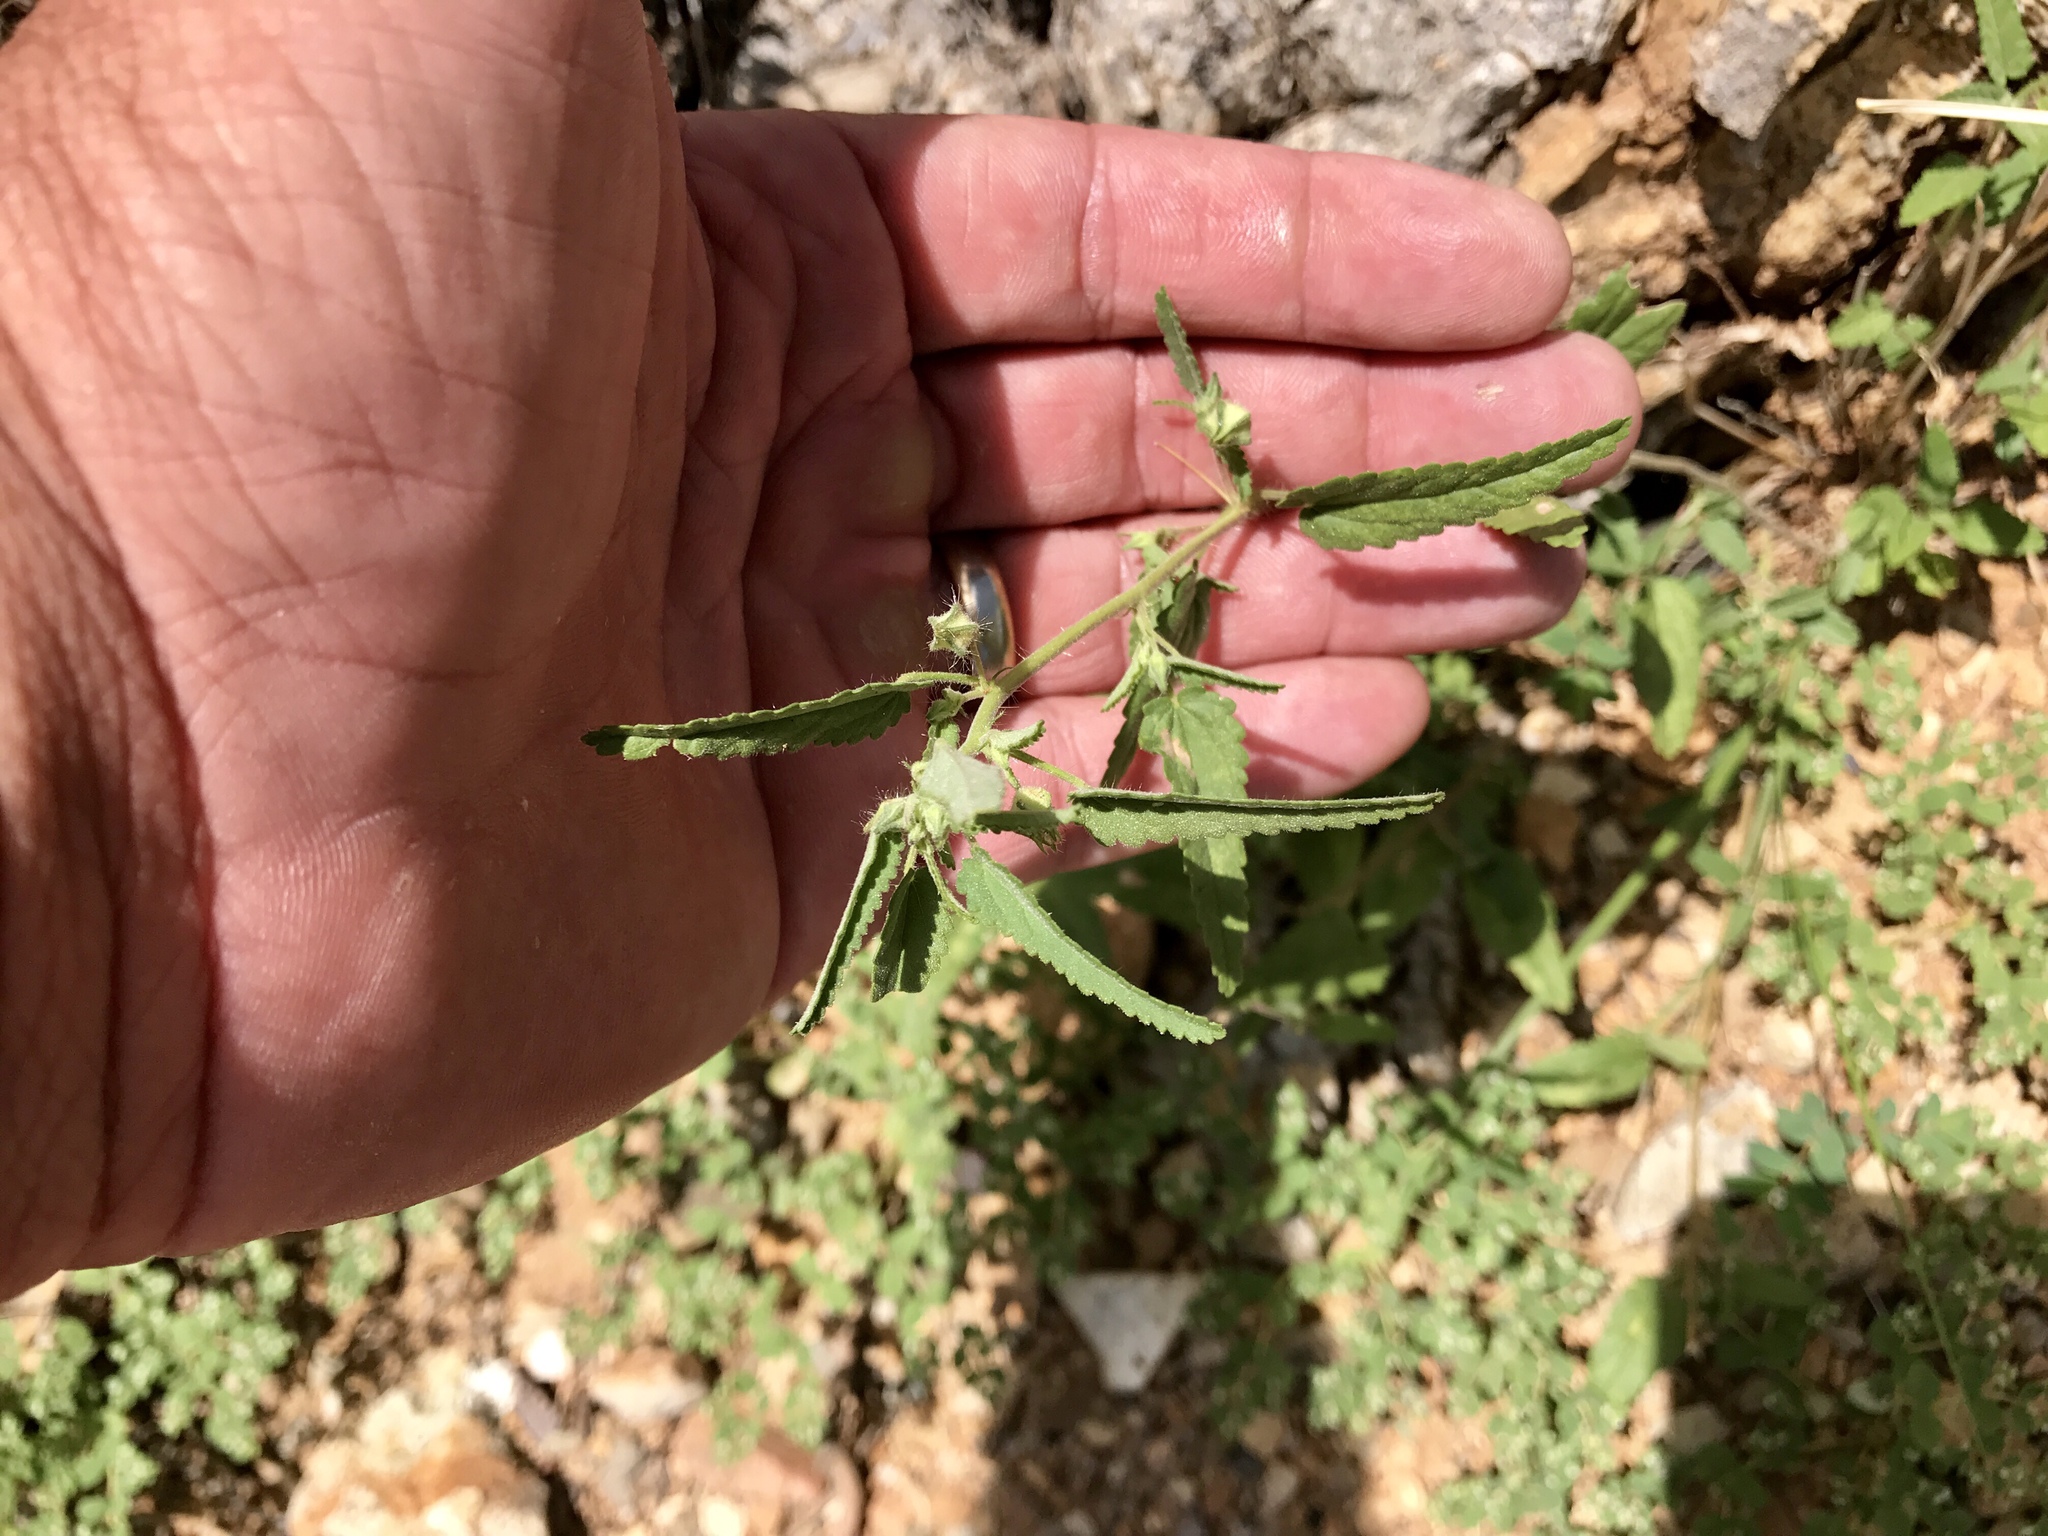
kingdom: Plantae
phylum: Tracheophyta
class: Magnoliopsida
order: Malvales
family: Malvaceae
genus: Sida
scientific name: Sida abutilifolia
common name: Spreading fanpetals
